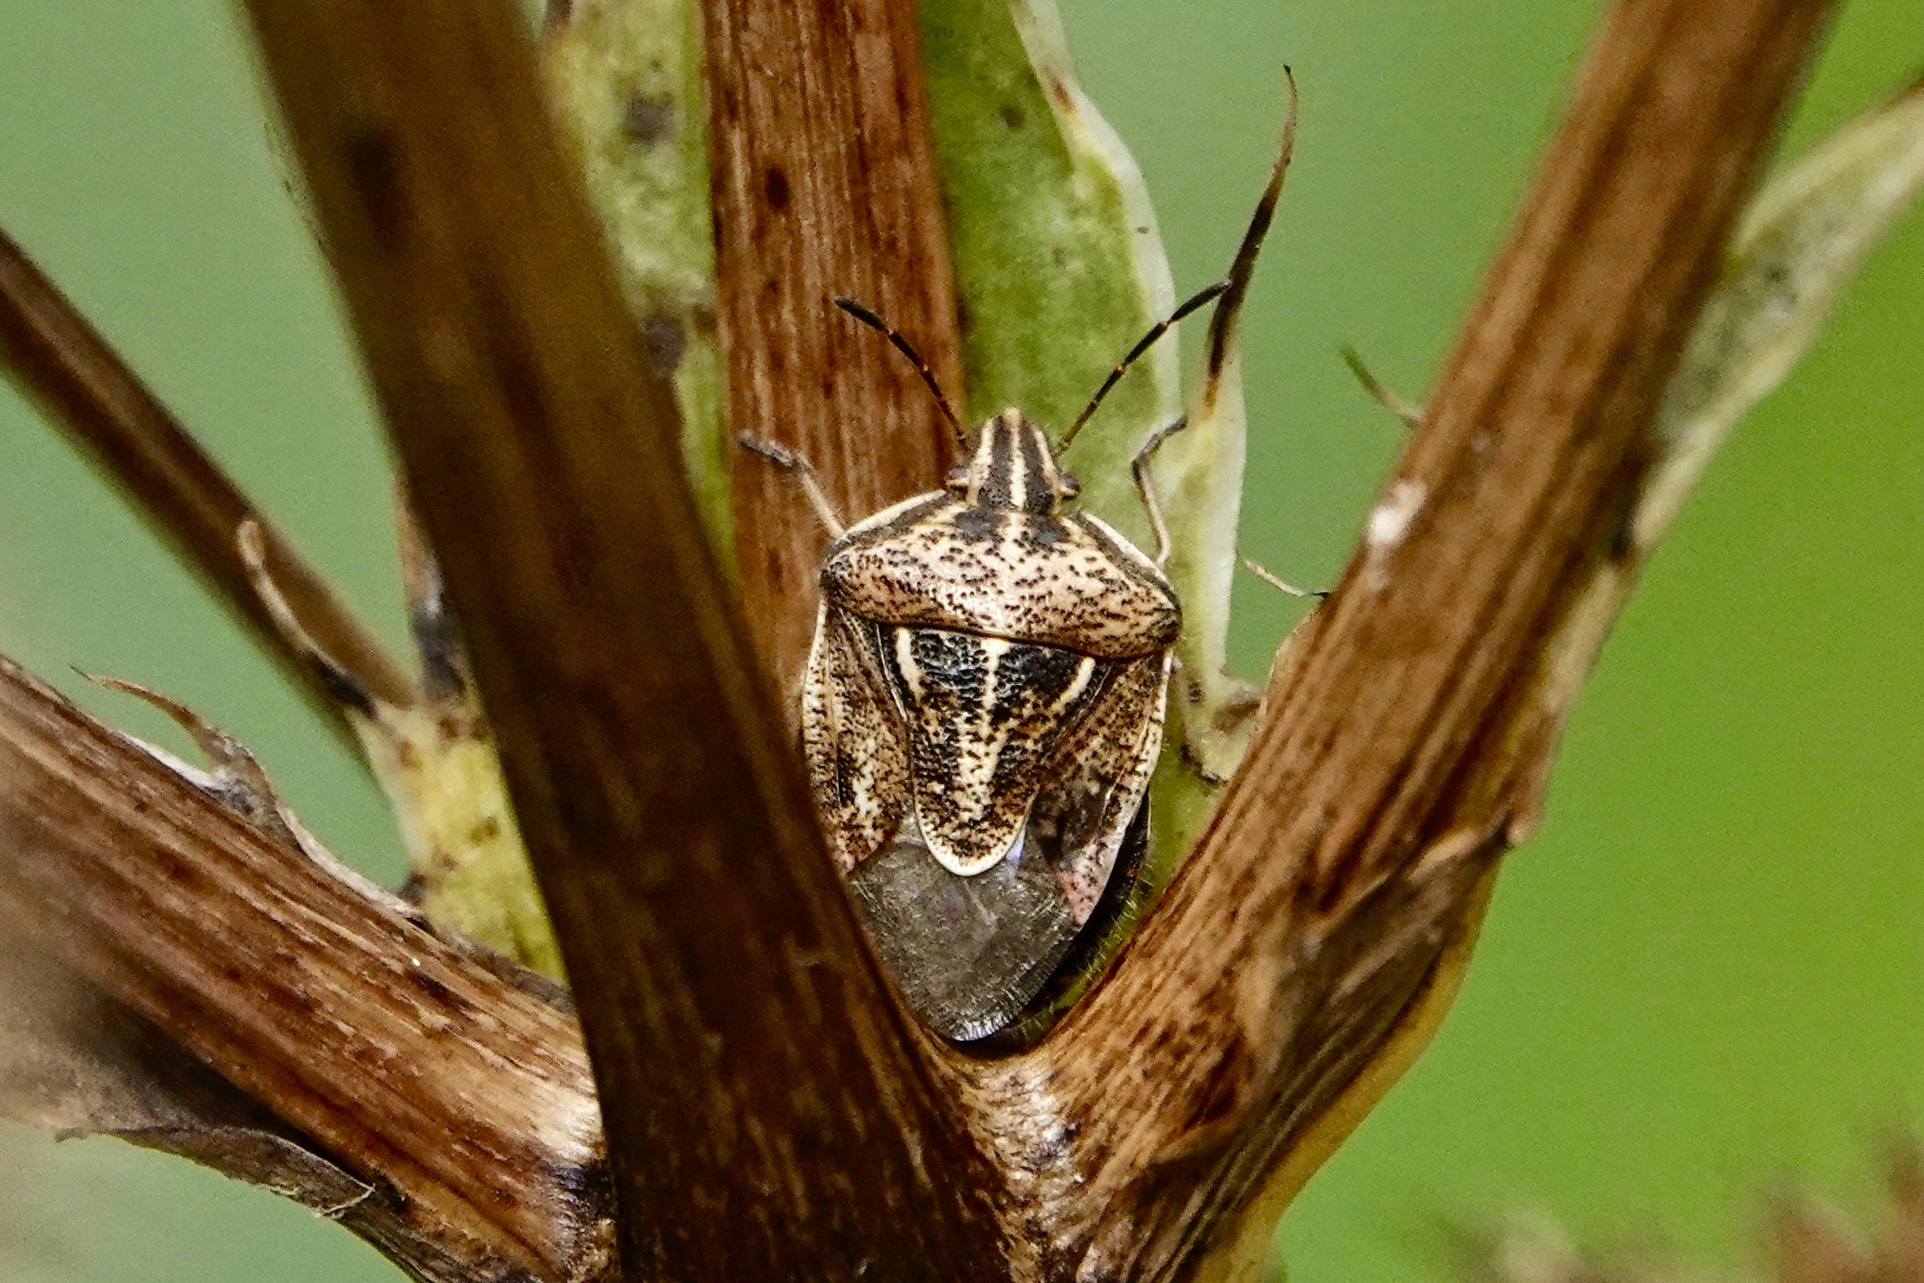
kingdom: Animalia
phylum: Arthropoda
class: Insecta
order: Hemiptera
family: Pentatomidae
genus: Trichopepla
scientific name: Trichopepla semivittata
